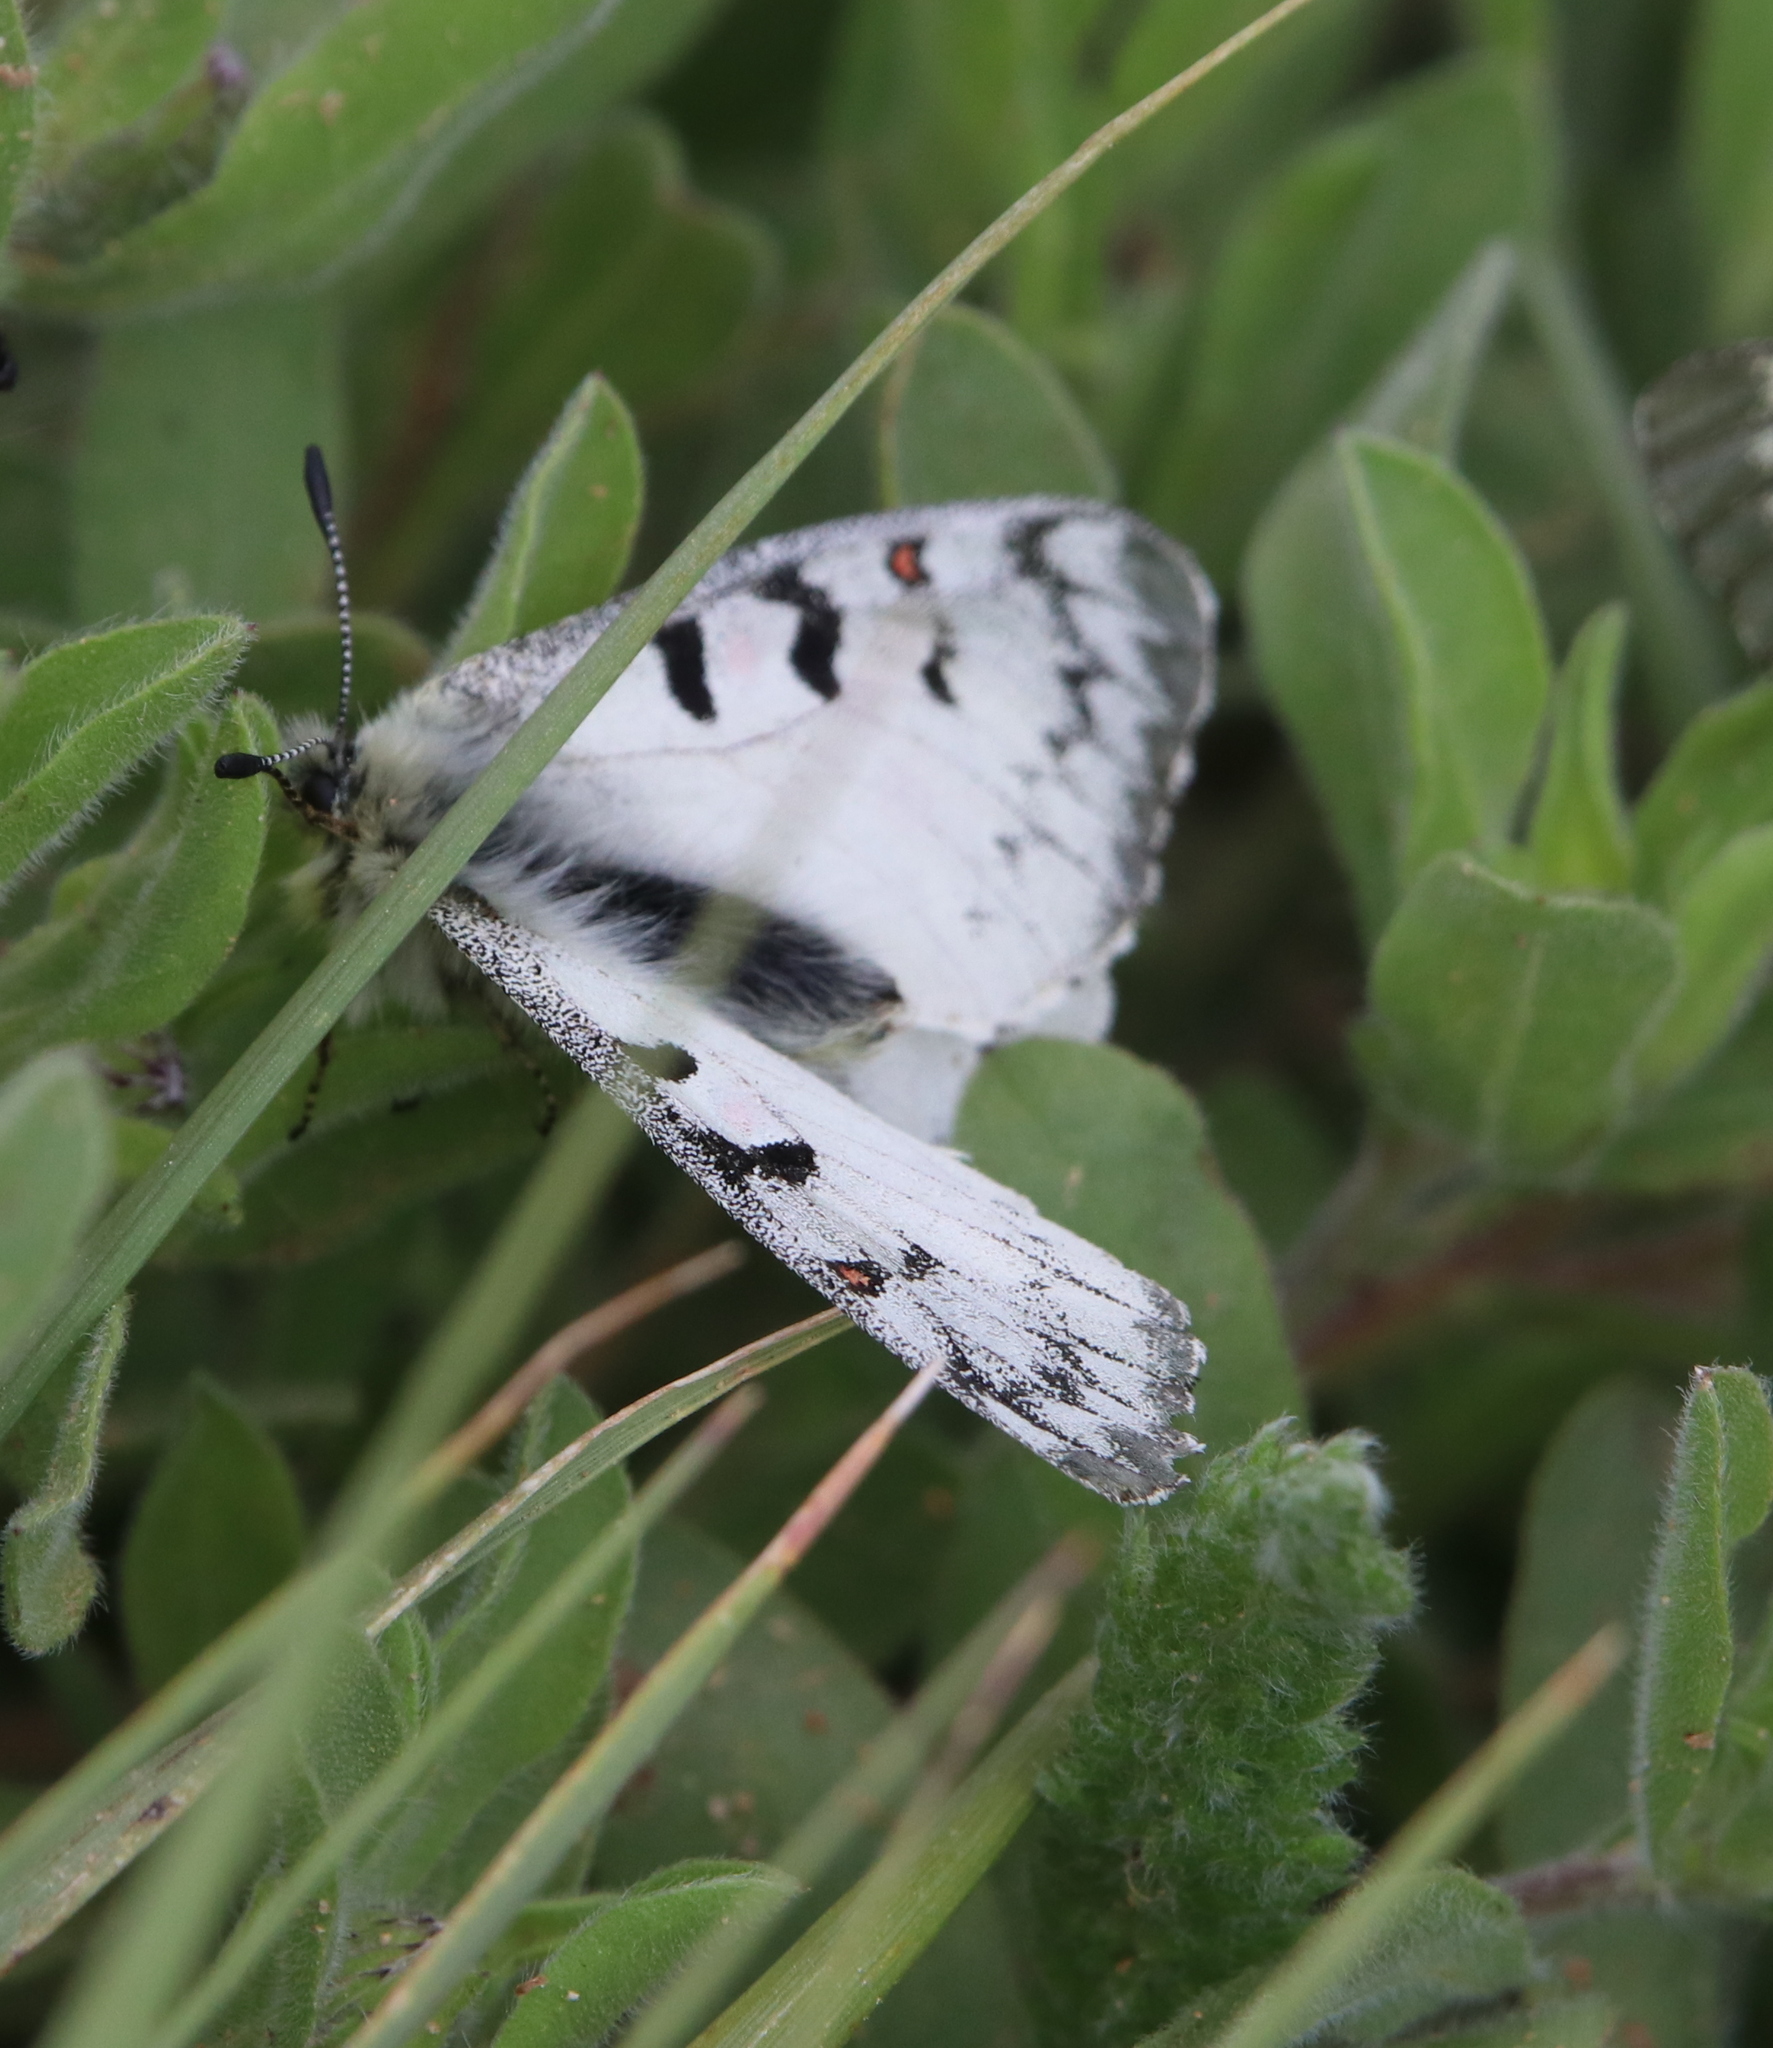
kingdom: Animalia
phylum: Arthropoda
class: Insecta
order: Lepidoptera
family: Papilionidae
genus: Parnassius
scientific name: Parnassius smintheus
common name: Mountain parnassian
